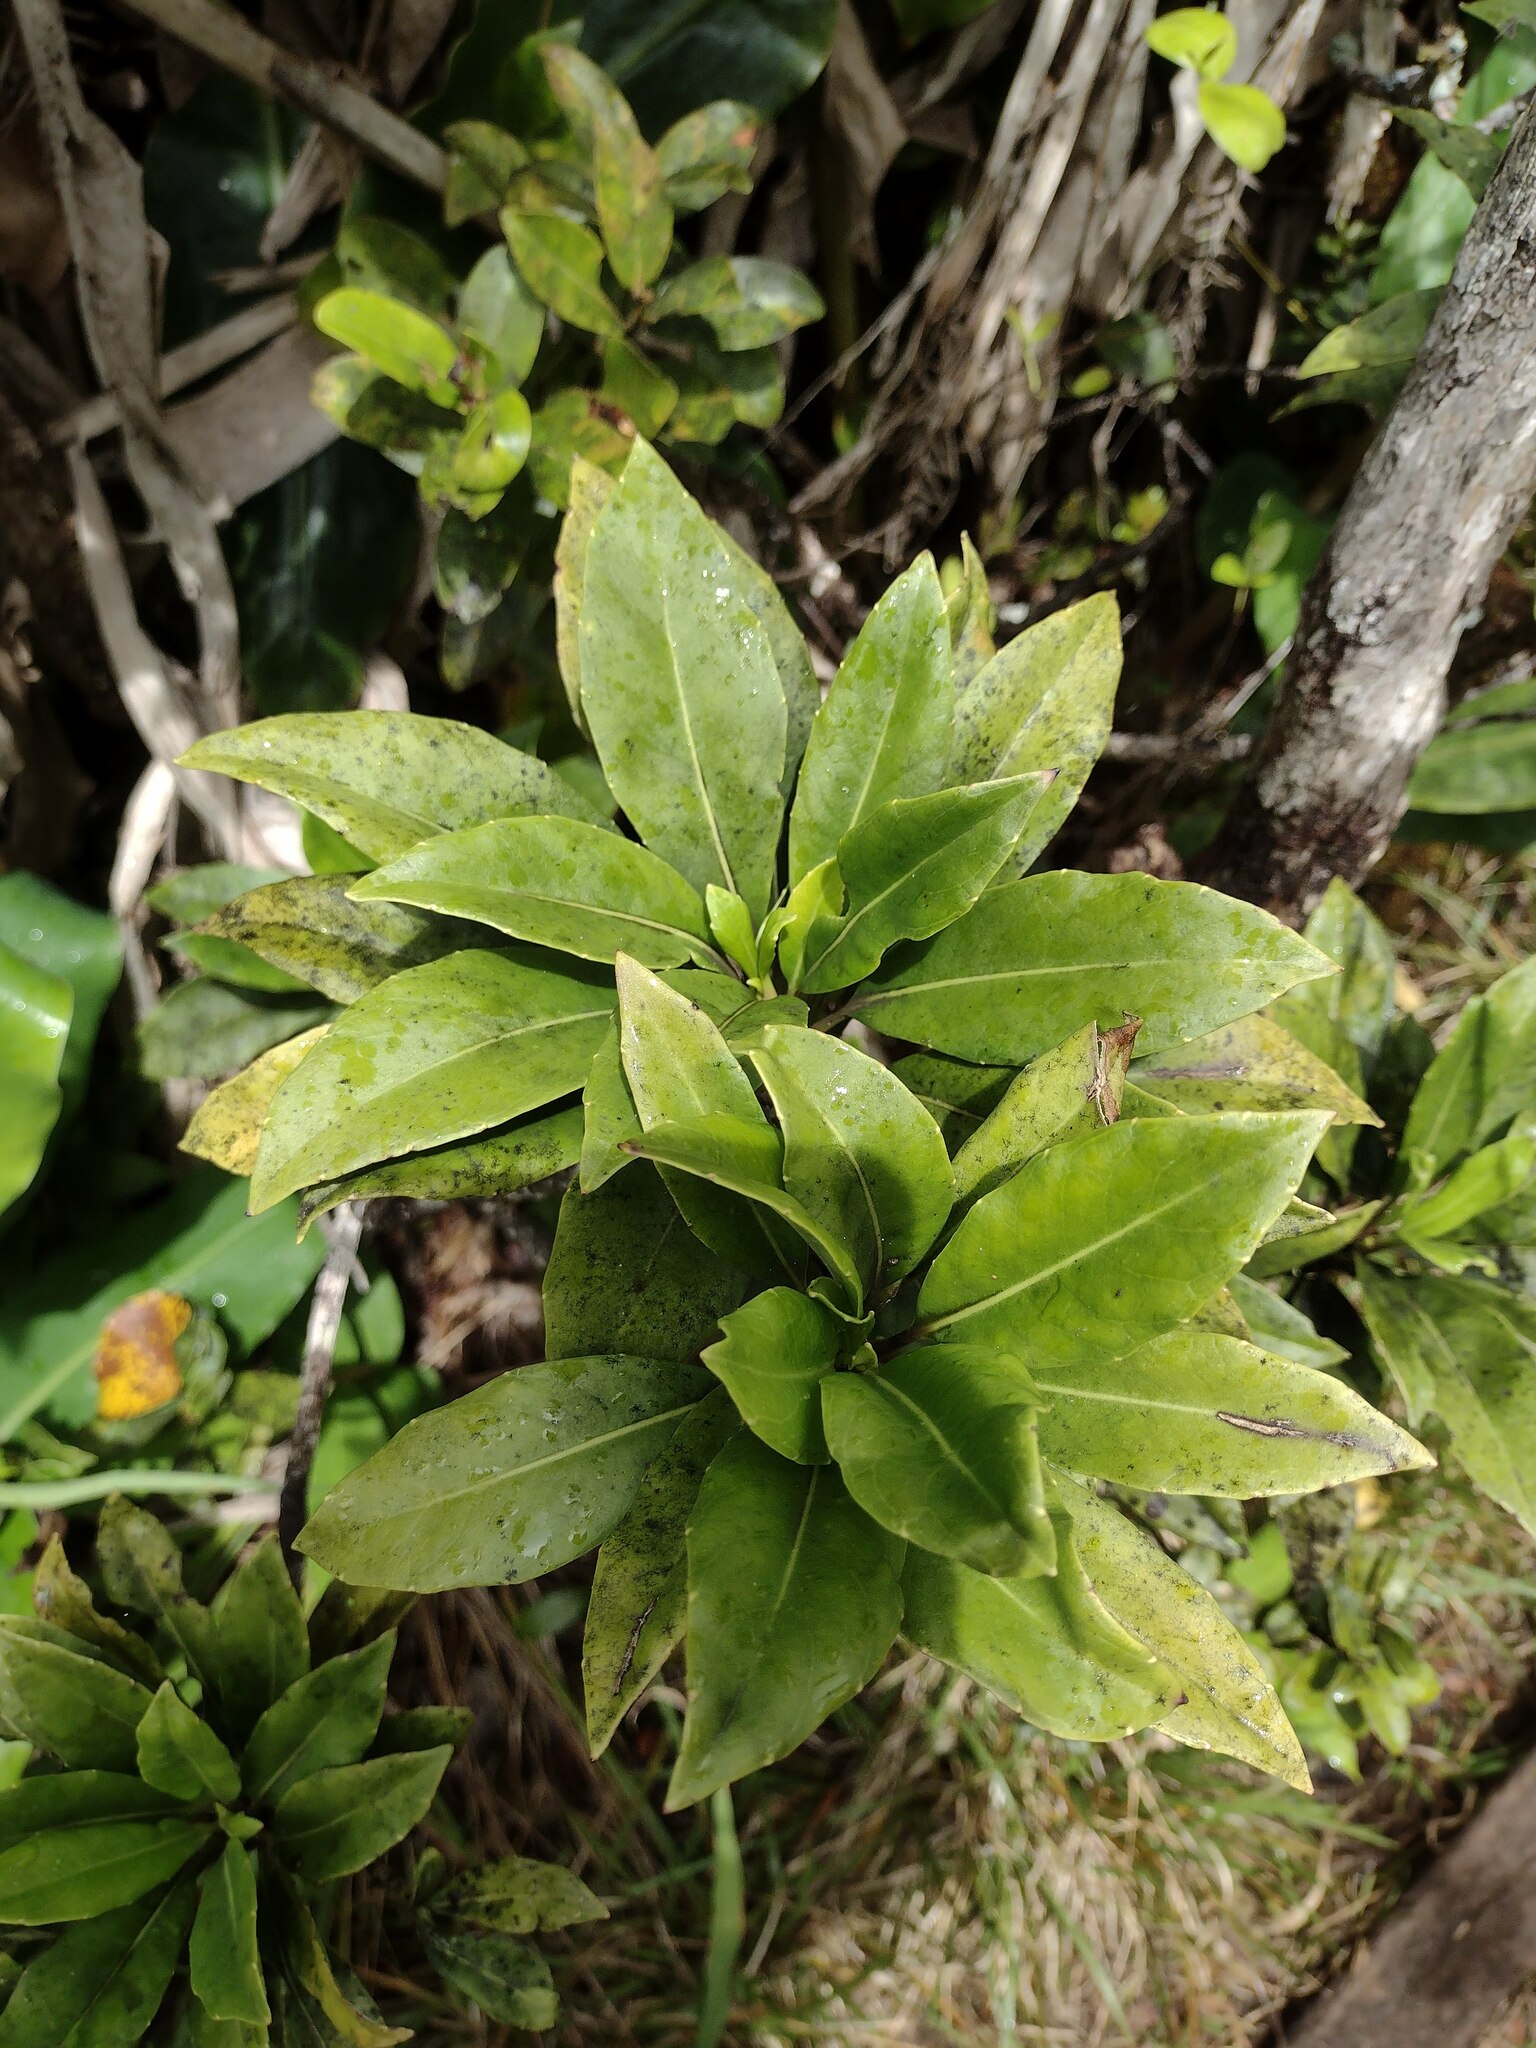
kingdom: Plantae
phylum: Tracheophyta
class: Magnoliopsida
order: Asterales
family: Goodeniaceae
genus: Scaevola
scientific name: Scaevola glabra
